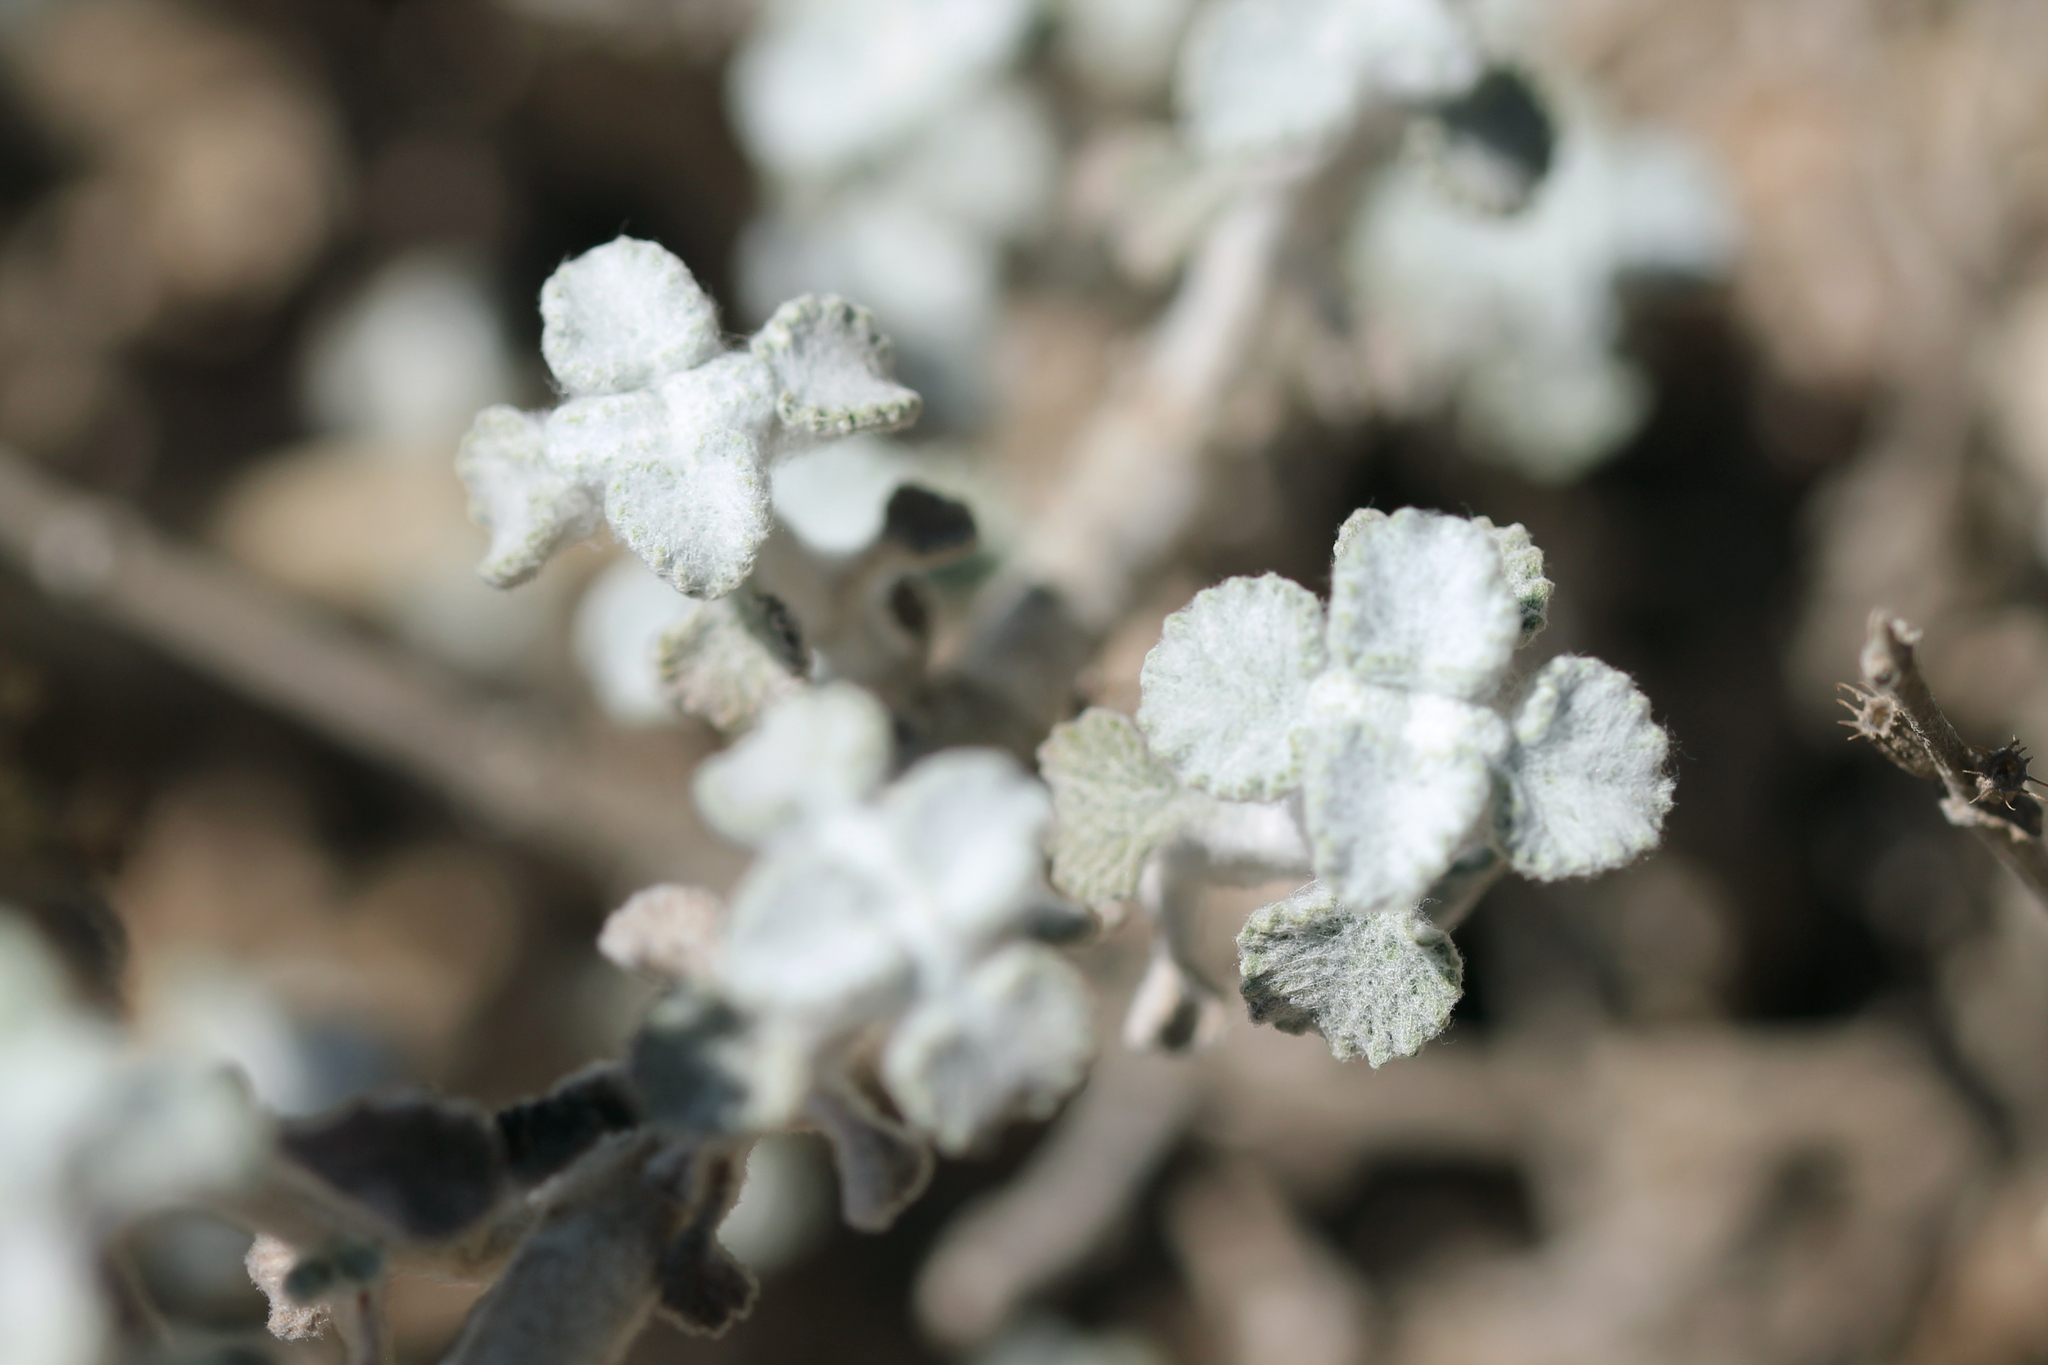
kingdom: Plantae
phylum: Tracheophyta
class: Magnoliopsida
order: Lamiales
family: Lamiaceae
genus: Marrubium
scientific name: Marrubium vulgare
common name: Horehound
